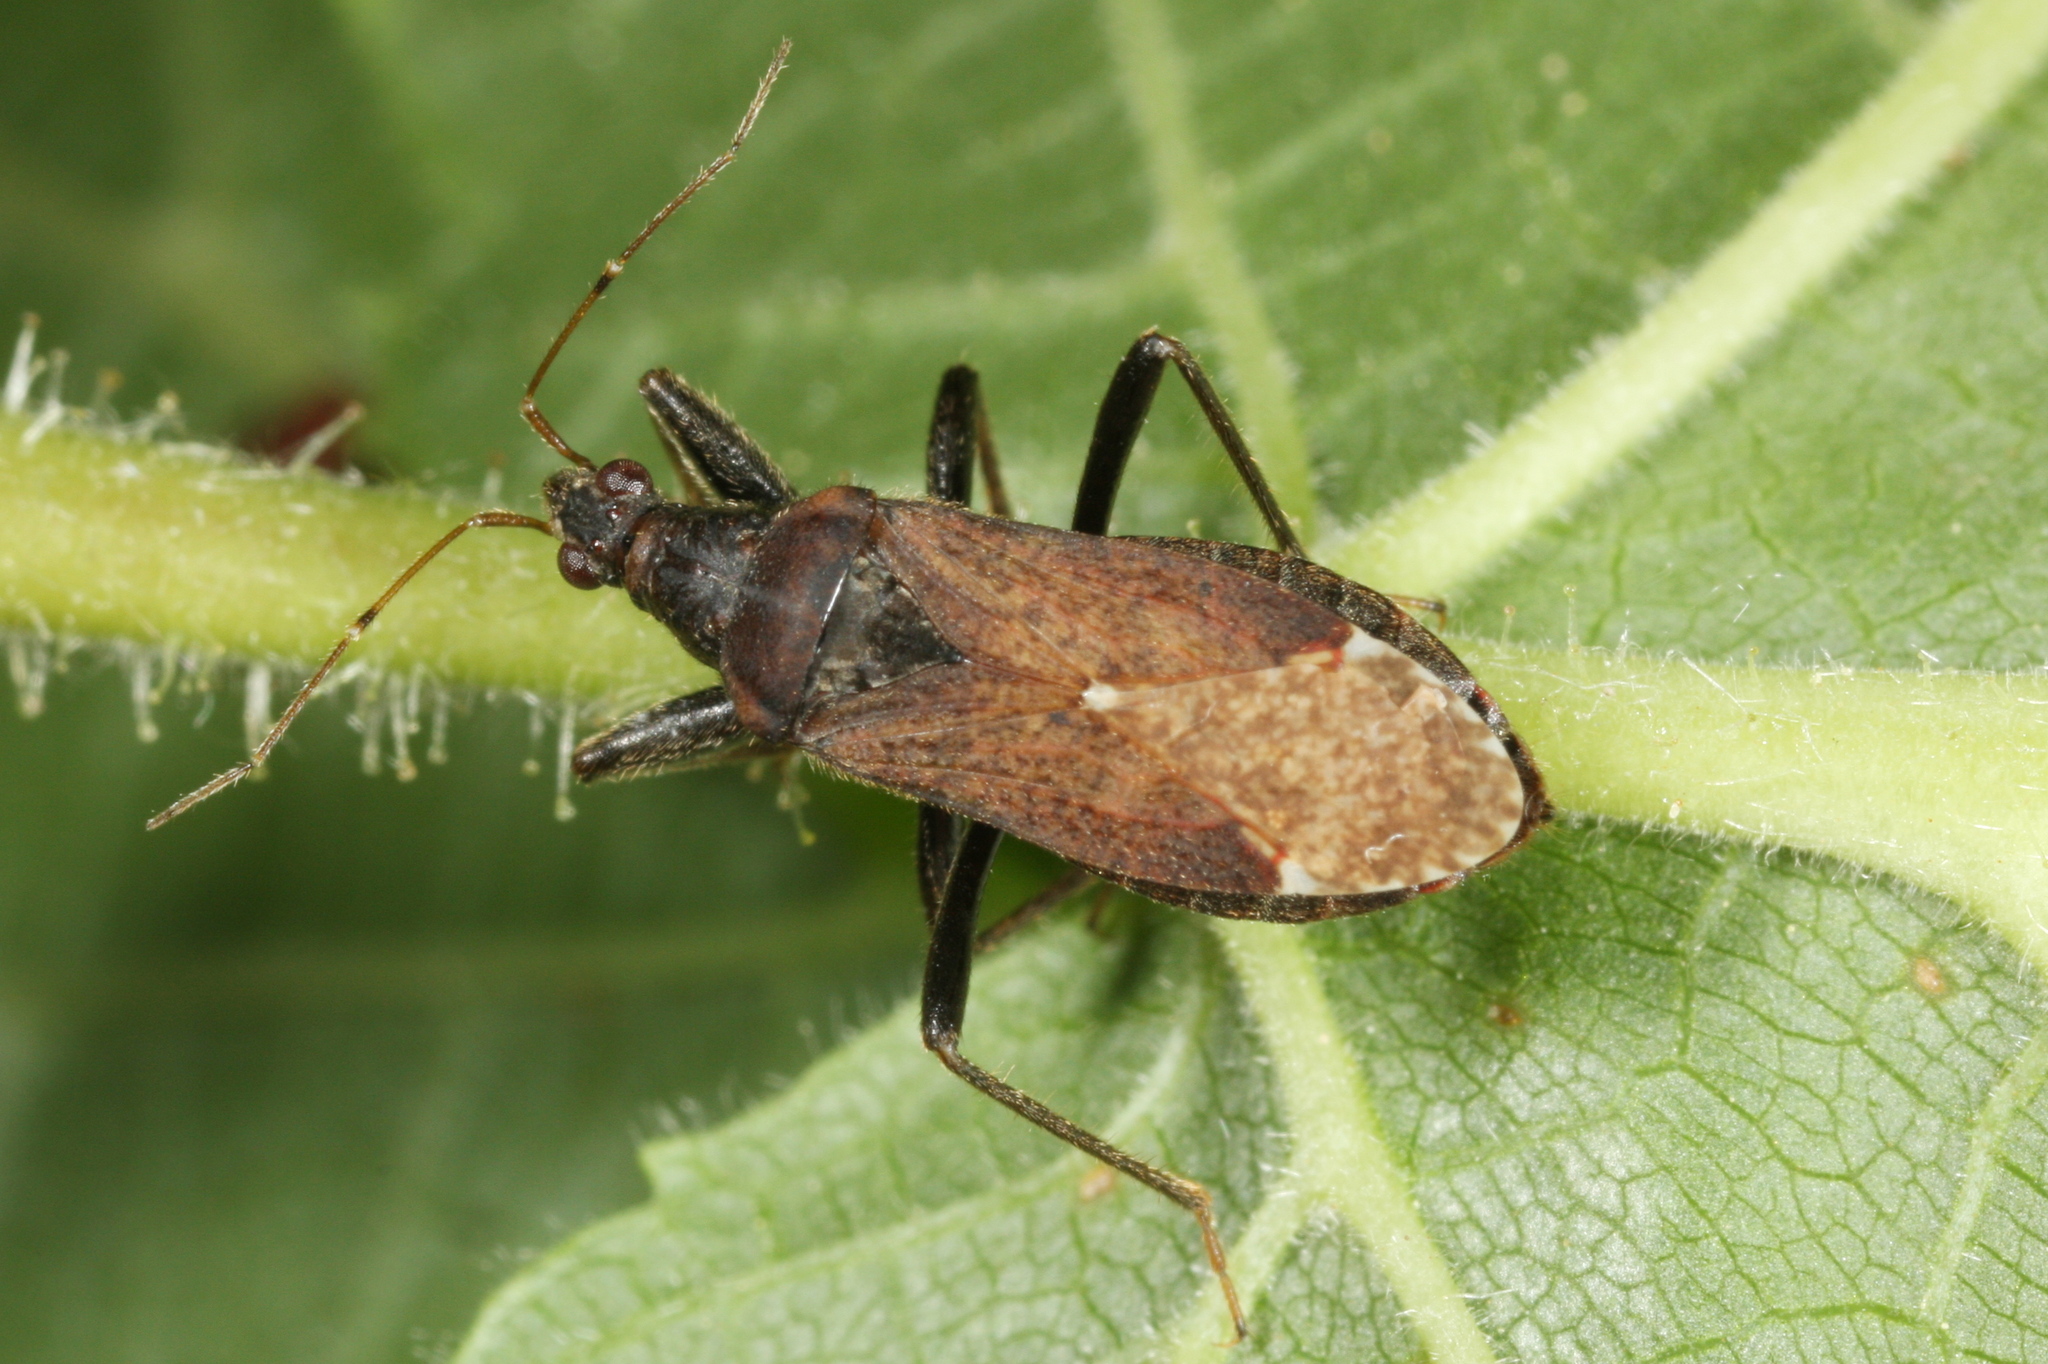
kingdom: Animalia
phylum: Arthropoda
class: Insecta
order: Hemiptera
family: Nabidae
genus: Himacerus
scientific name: Himacerus mirmicoides
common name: Ant damsel bug
